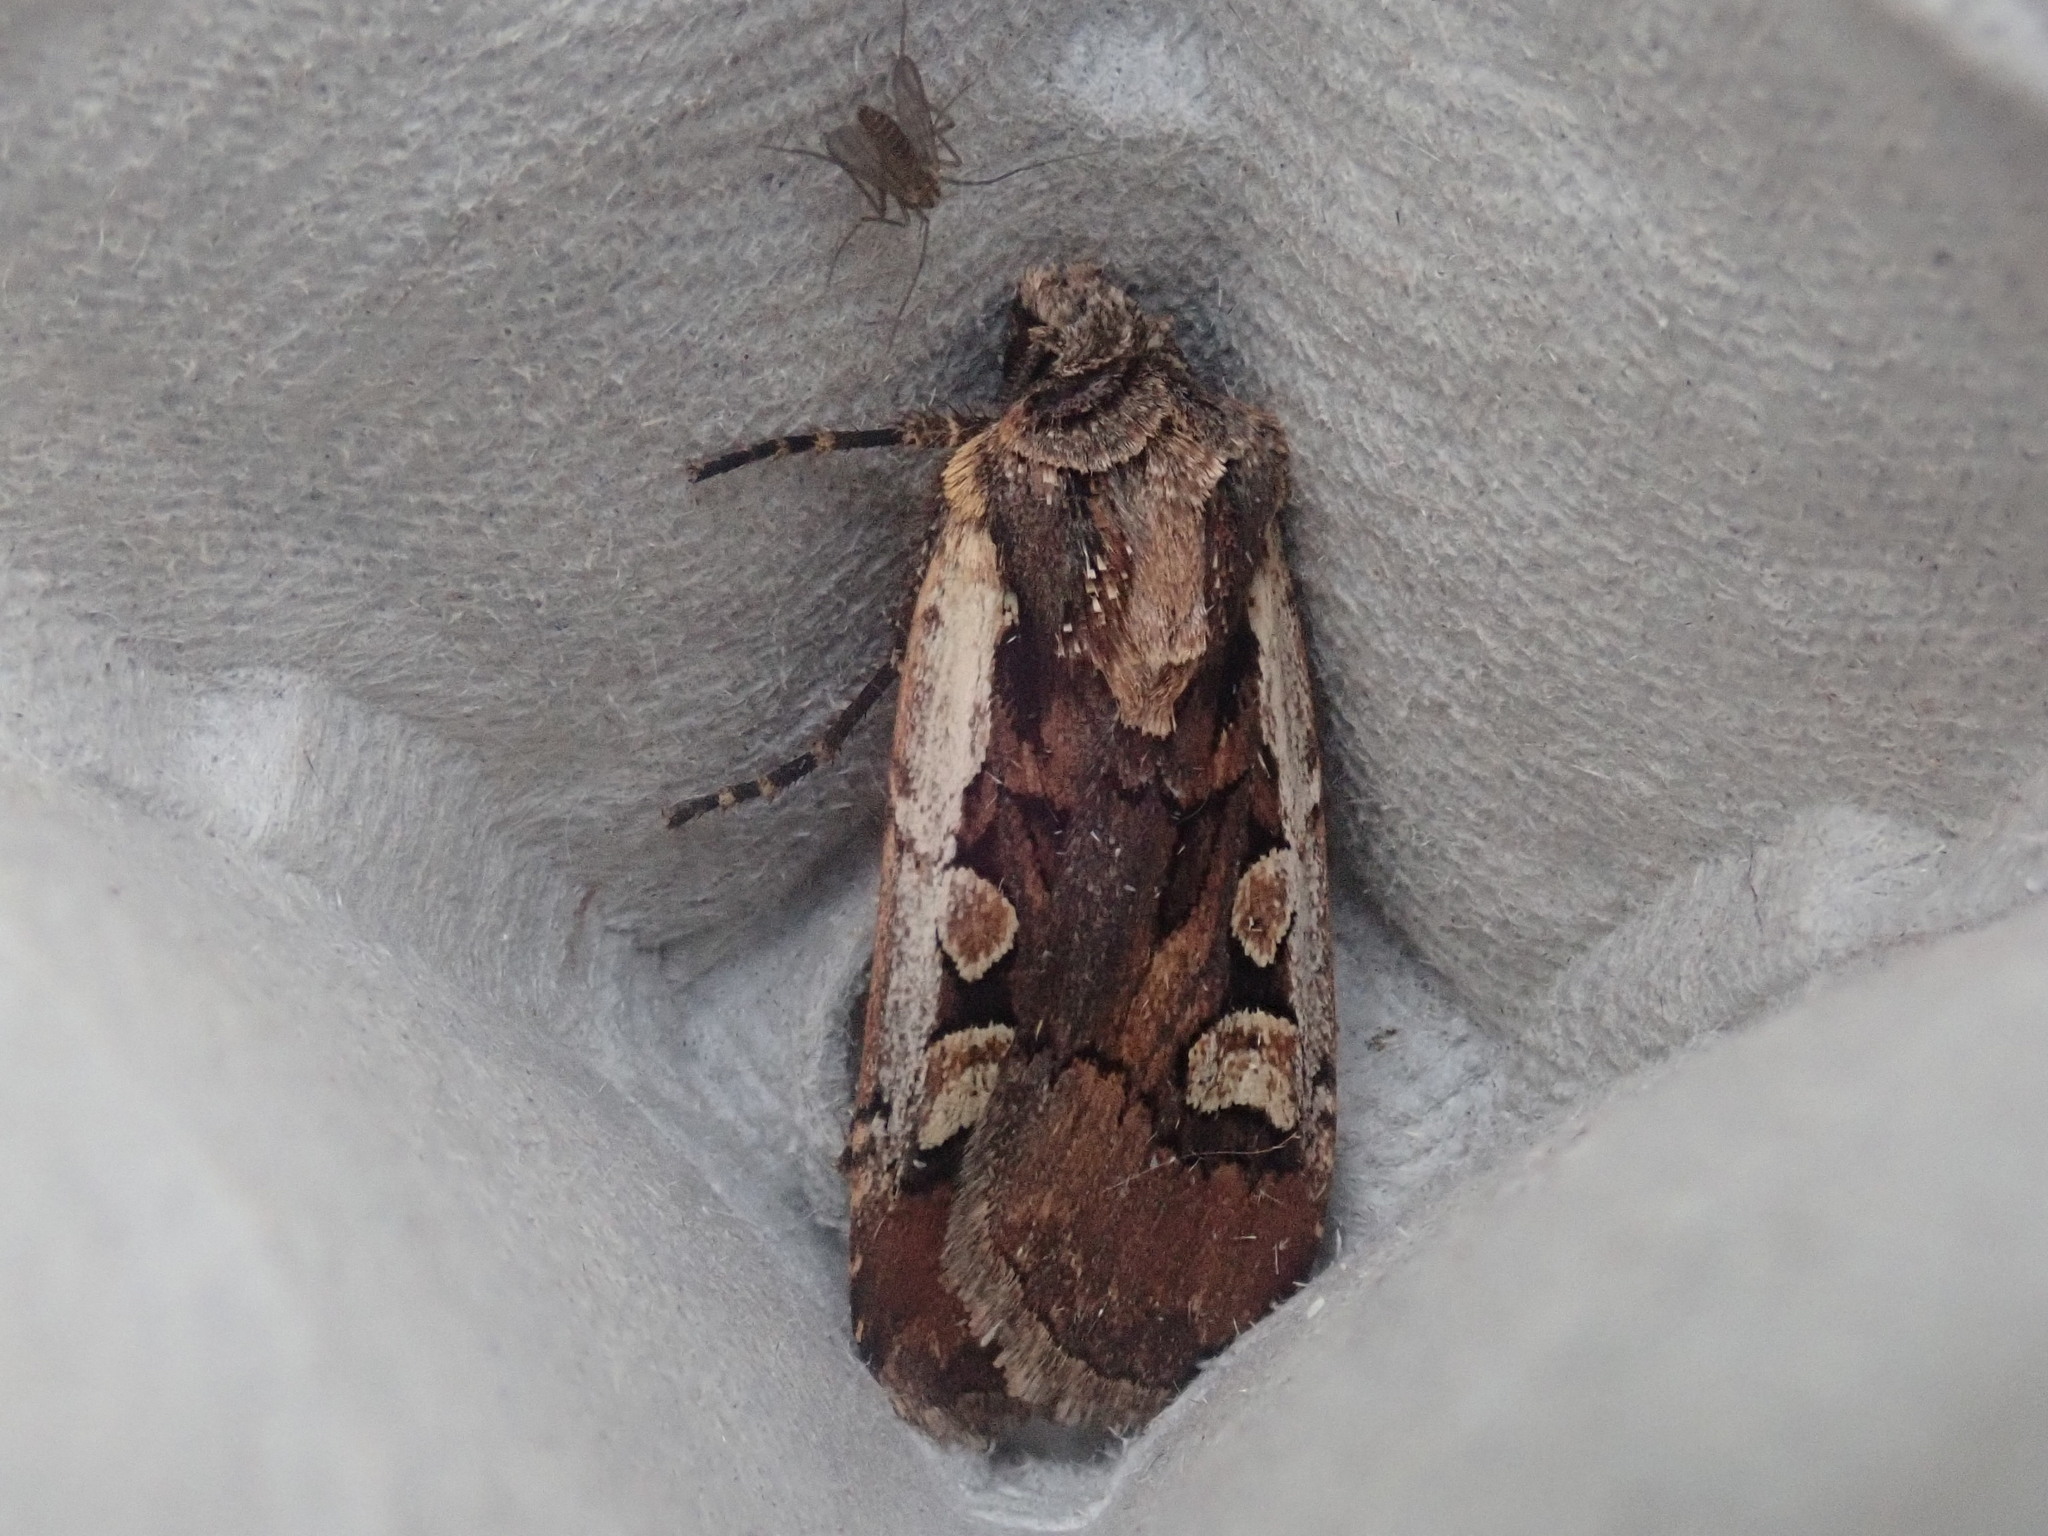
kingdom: Animalia
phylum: Arthropoda
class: Insecta
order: Lepidoptera
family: Noctuidae
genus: Euxoa
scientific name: Euxoa obeliscoides
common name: Obelisk dart moth
